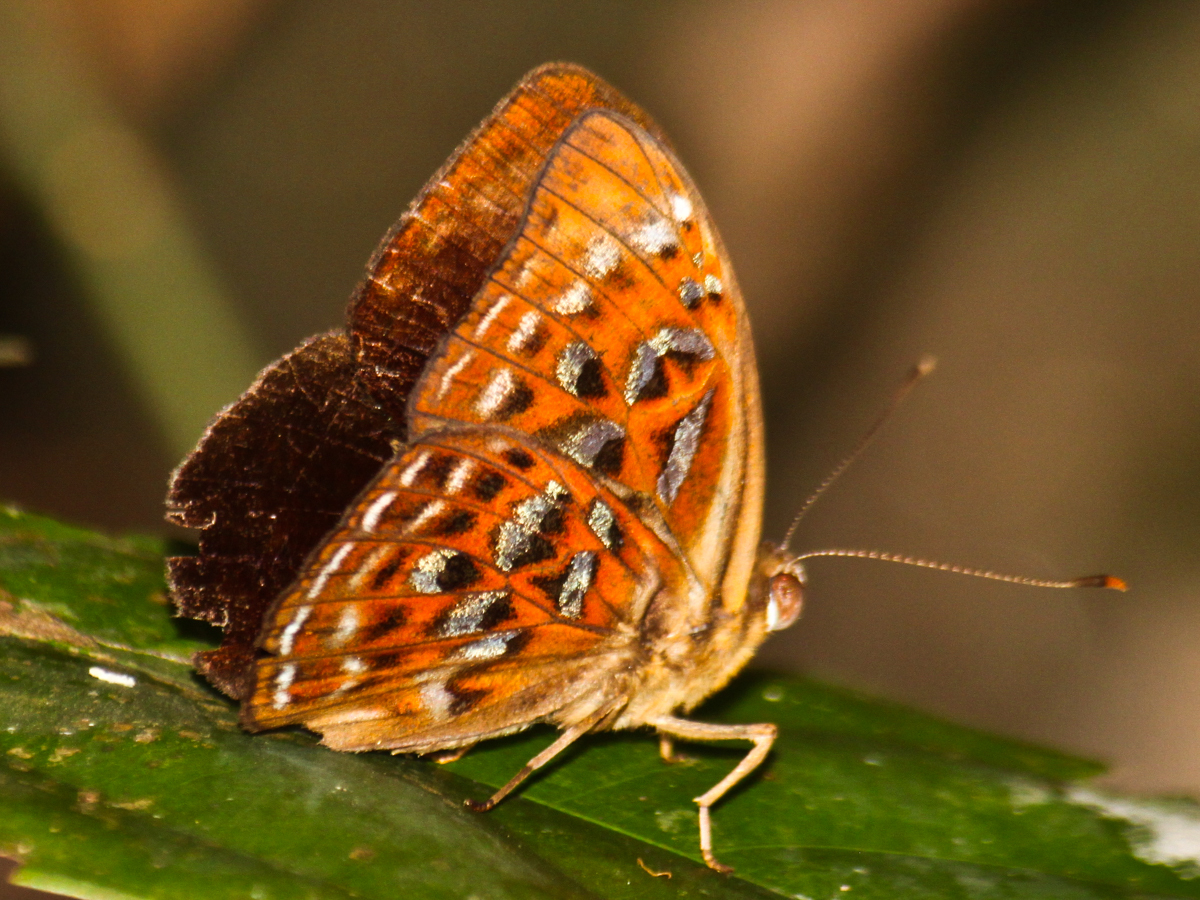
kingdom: Animalia
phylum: Arthropoda
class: Insecta
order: Lepidoptera
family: Erebidae
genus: Dysschema
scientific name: Dysschema
